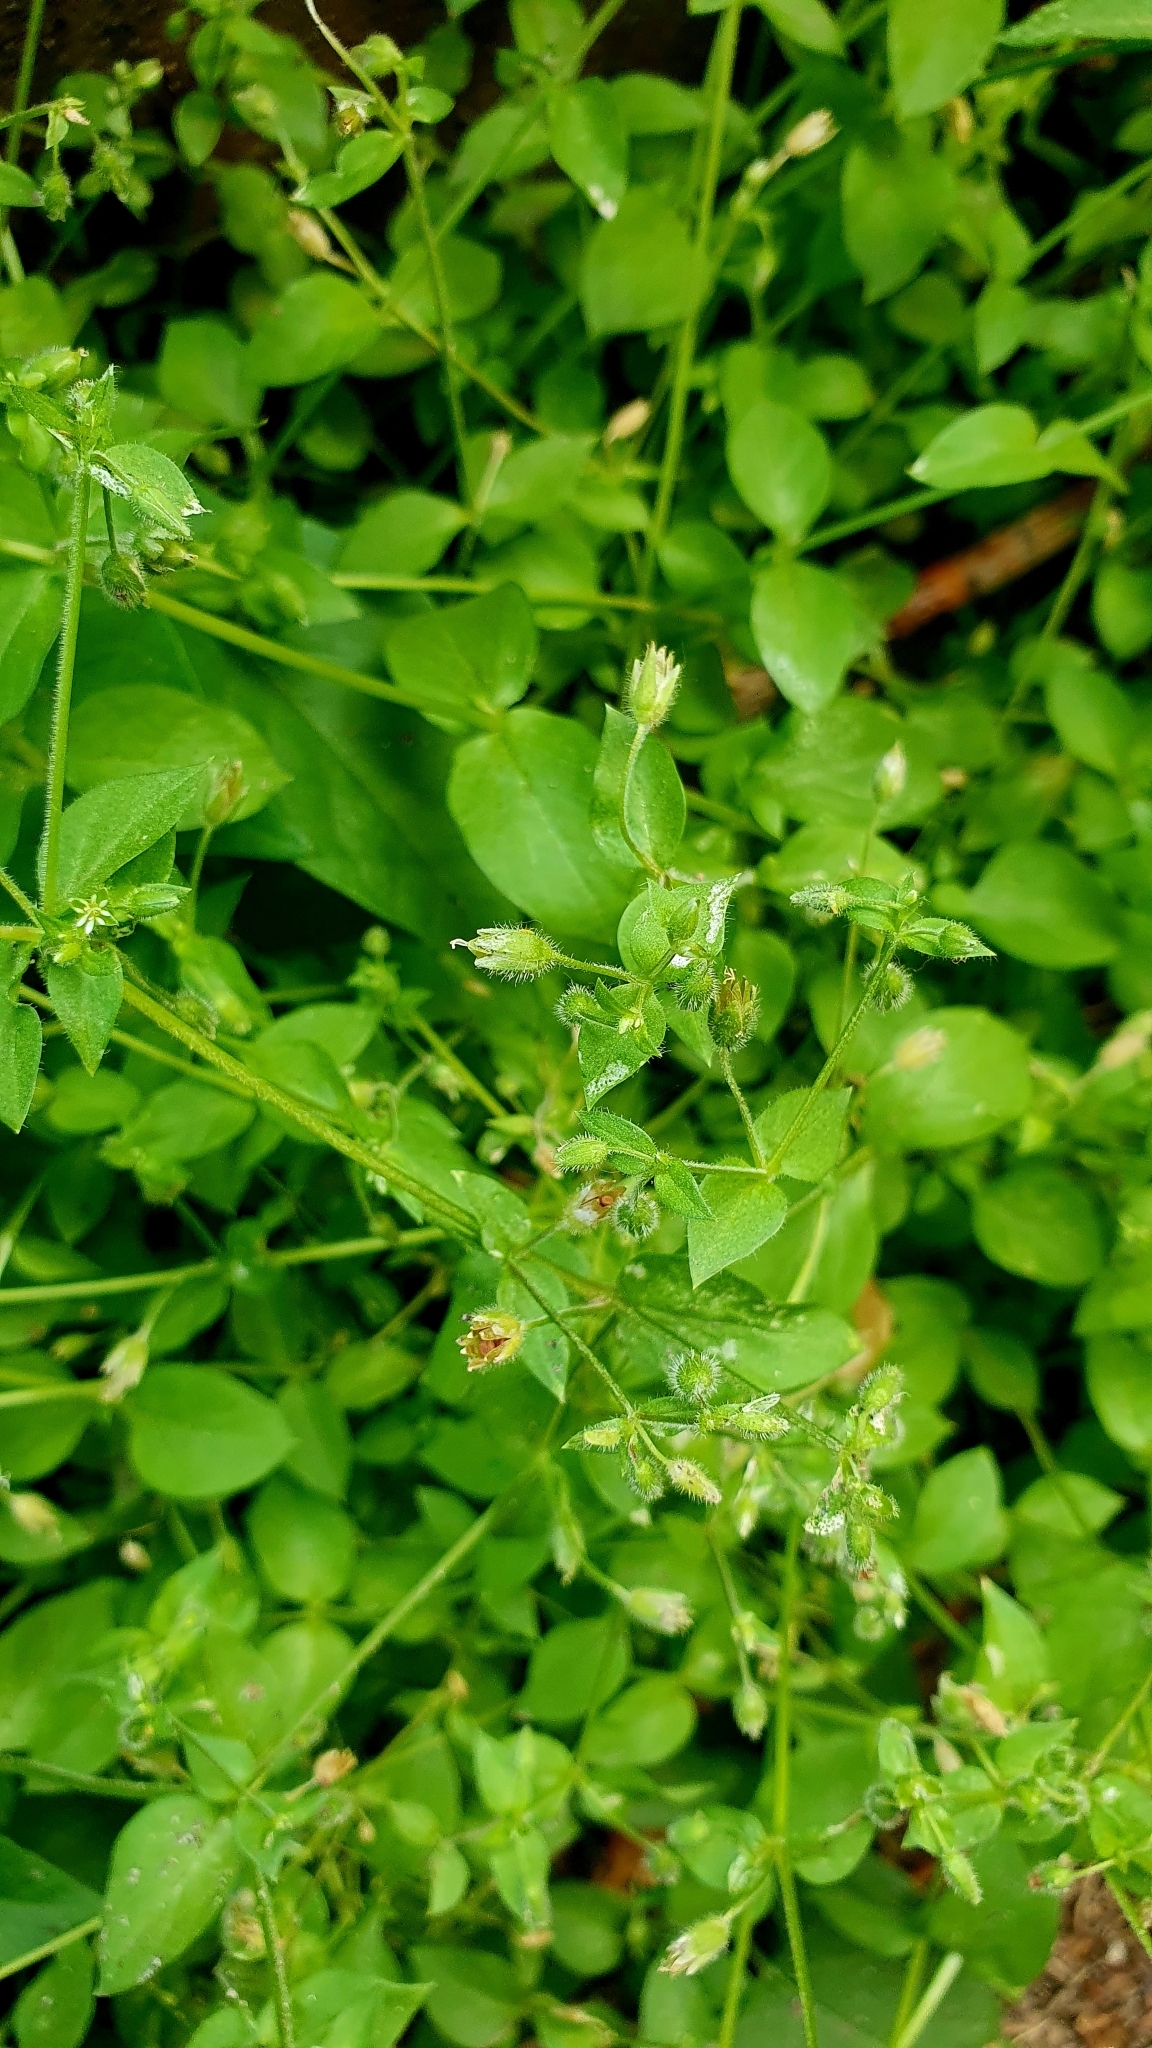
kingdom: Plantae
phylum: Tracheophyta
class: Magnoliopsida
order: Caryophyllales
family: Caryophyllaceae
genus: Stellaria
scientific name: Stellaria media
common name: Common chickweed
